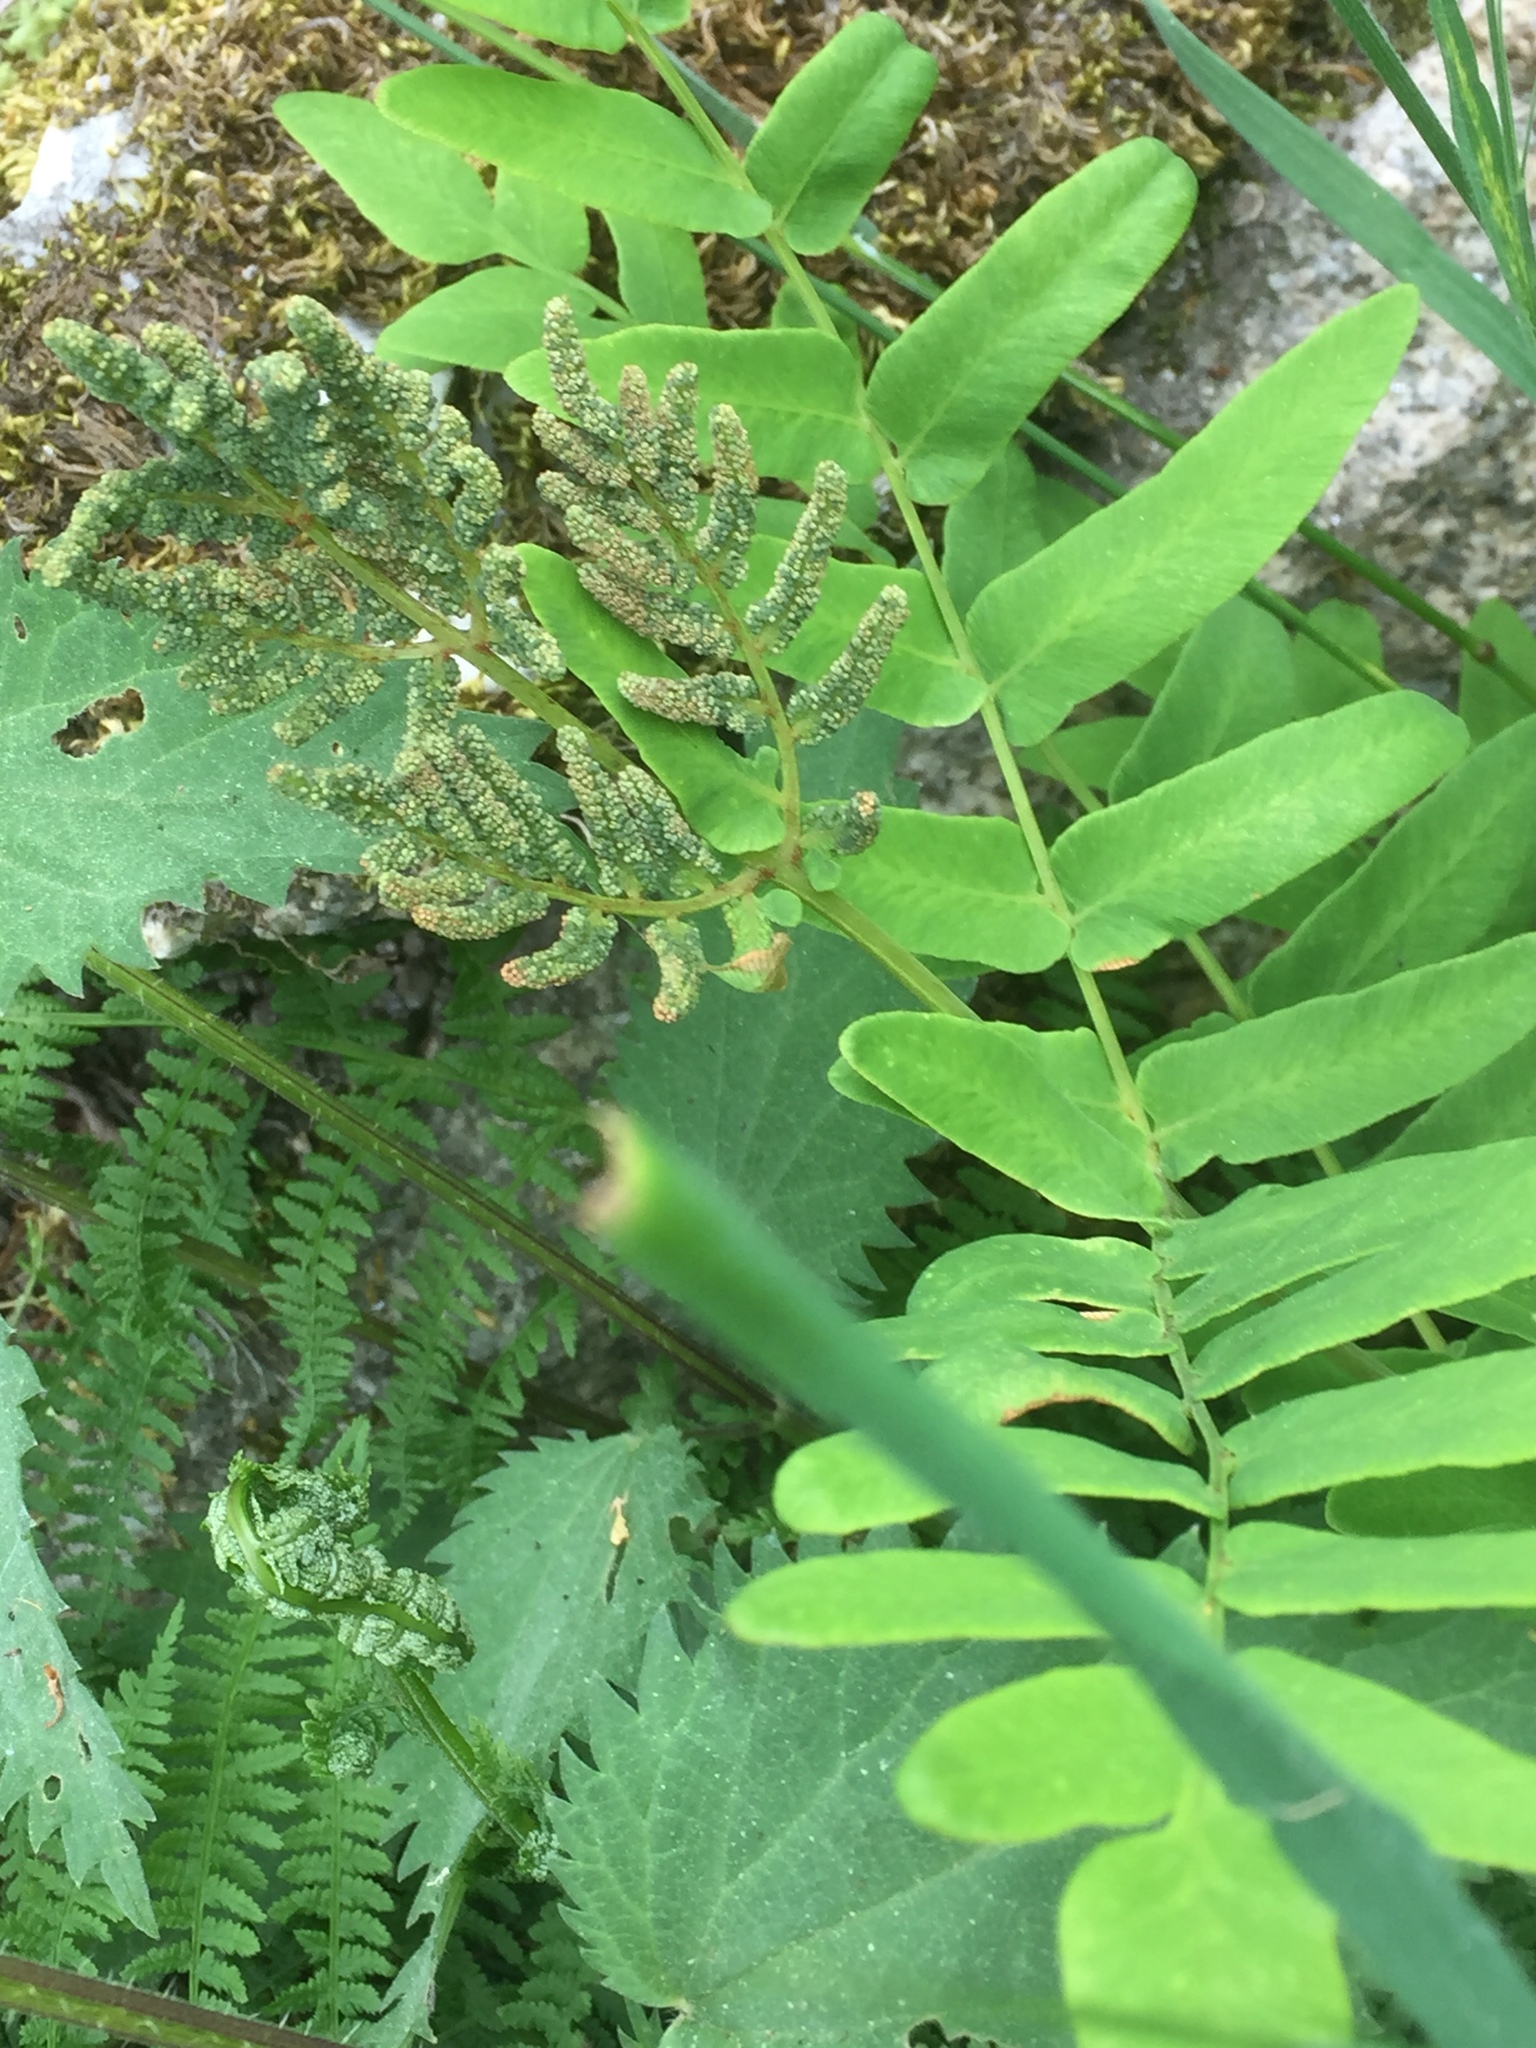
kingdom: Plantae
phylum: Tracheophyta
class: Polypodiopsida
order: Osmundales
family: Osmundaceae
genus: Osmunda
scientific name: Osmunda regalis
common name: Royal fern
